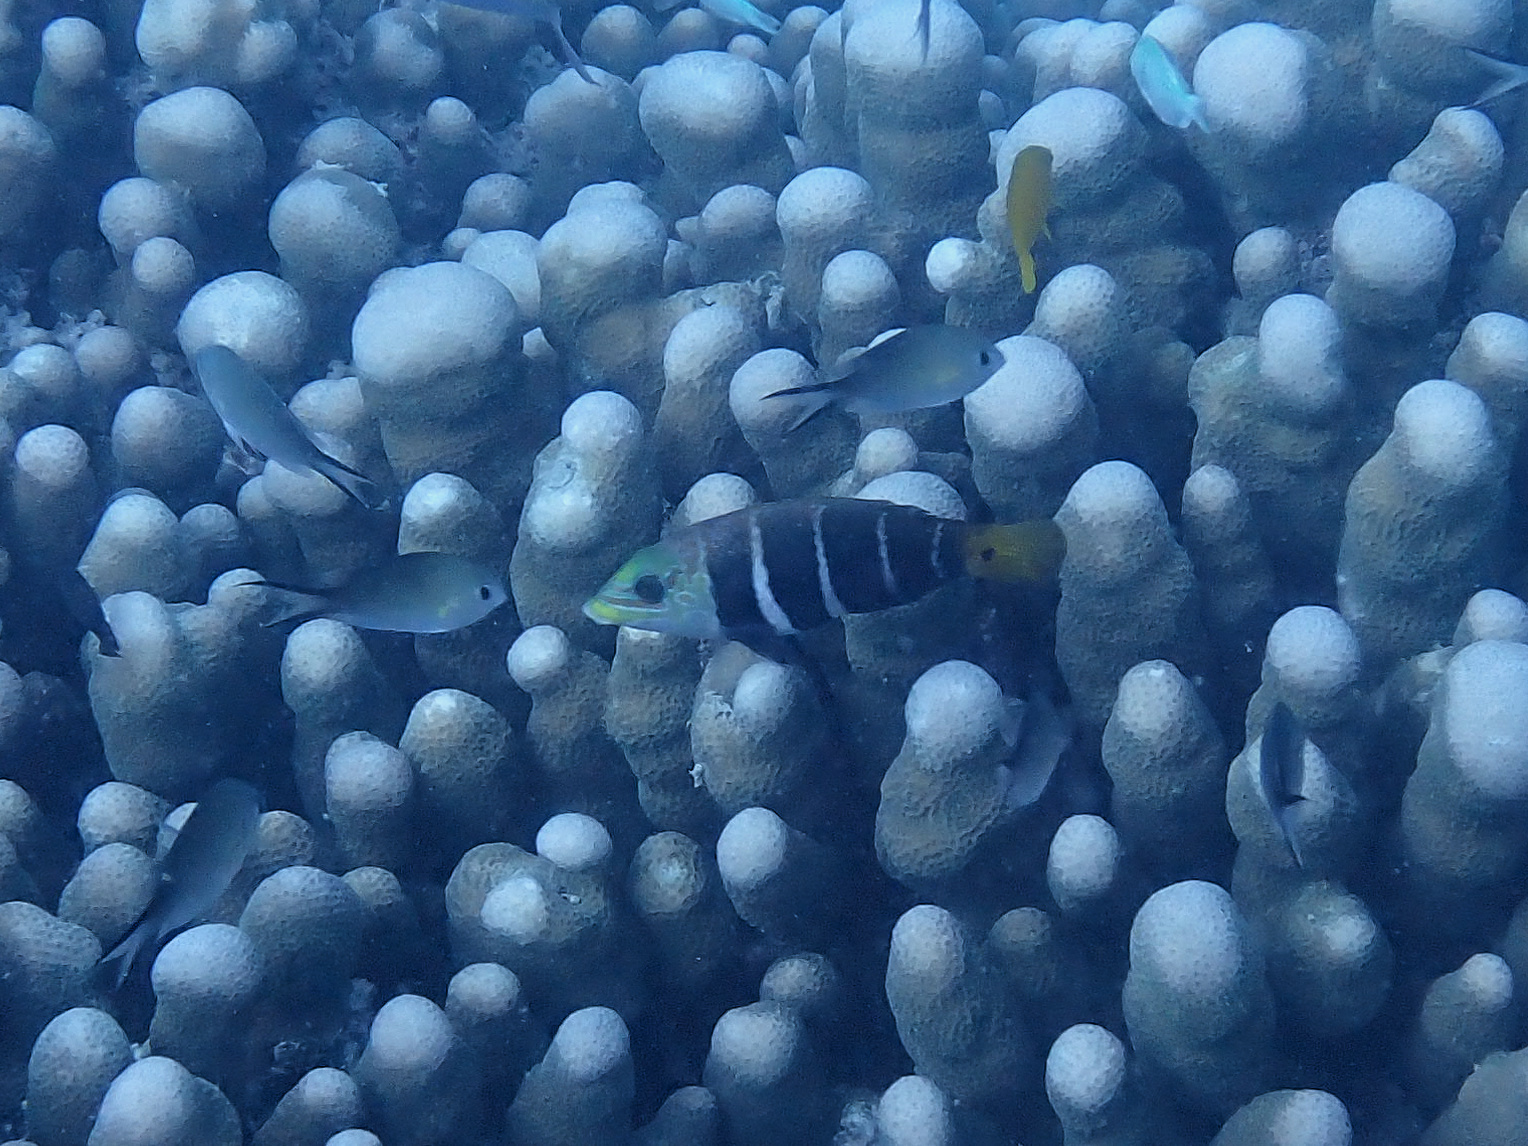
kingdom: Animalia
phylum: Chordata
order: Perciformes
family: Labridae
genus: Hemigymnus
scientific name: Hemigymnus fasciatus
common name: Barred thicklip
